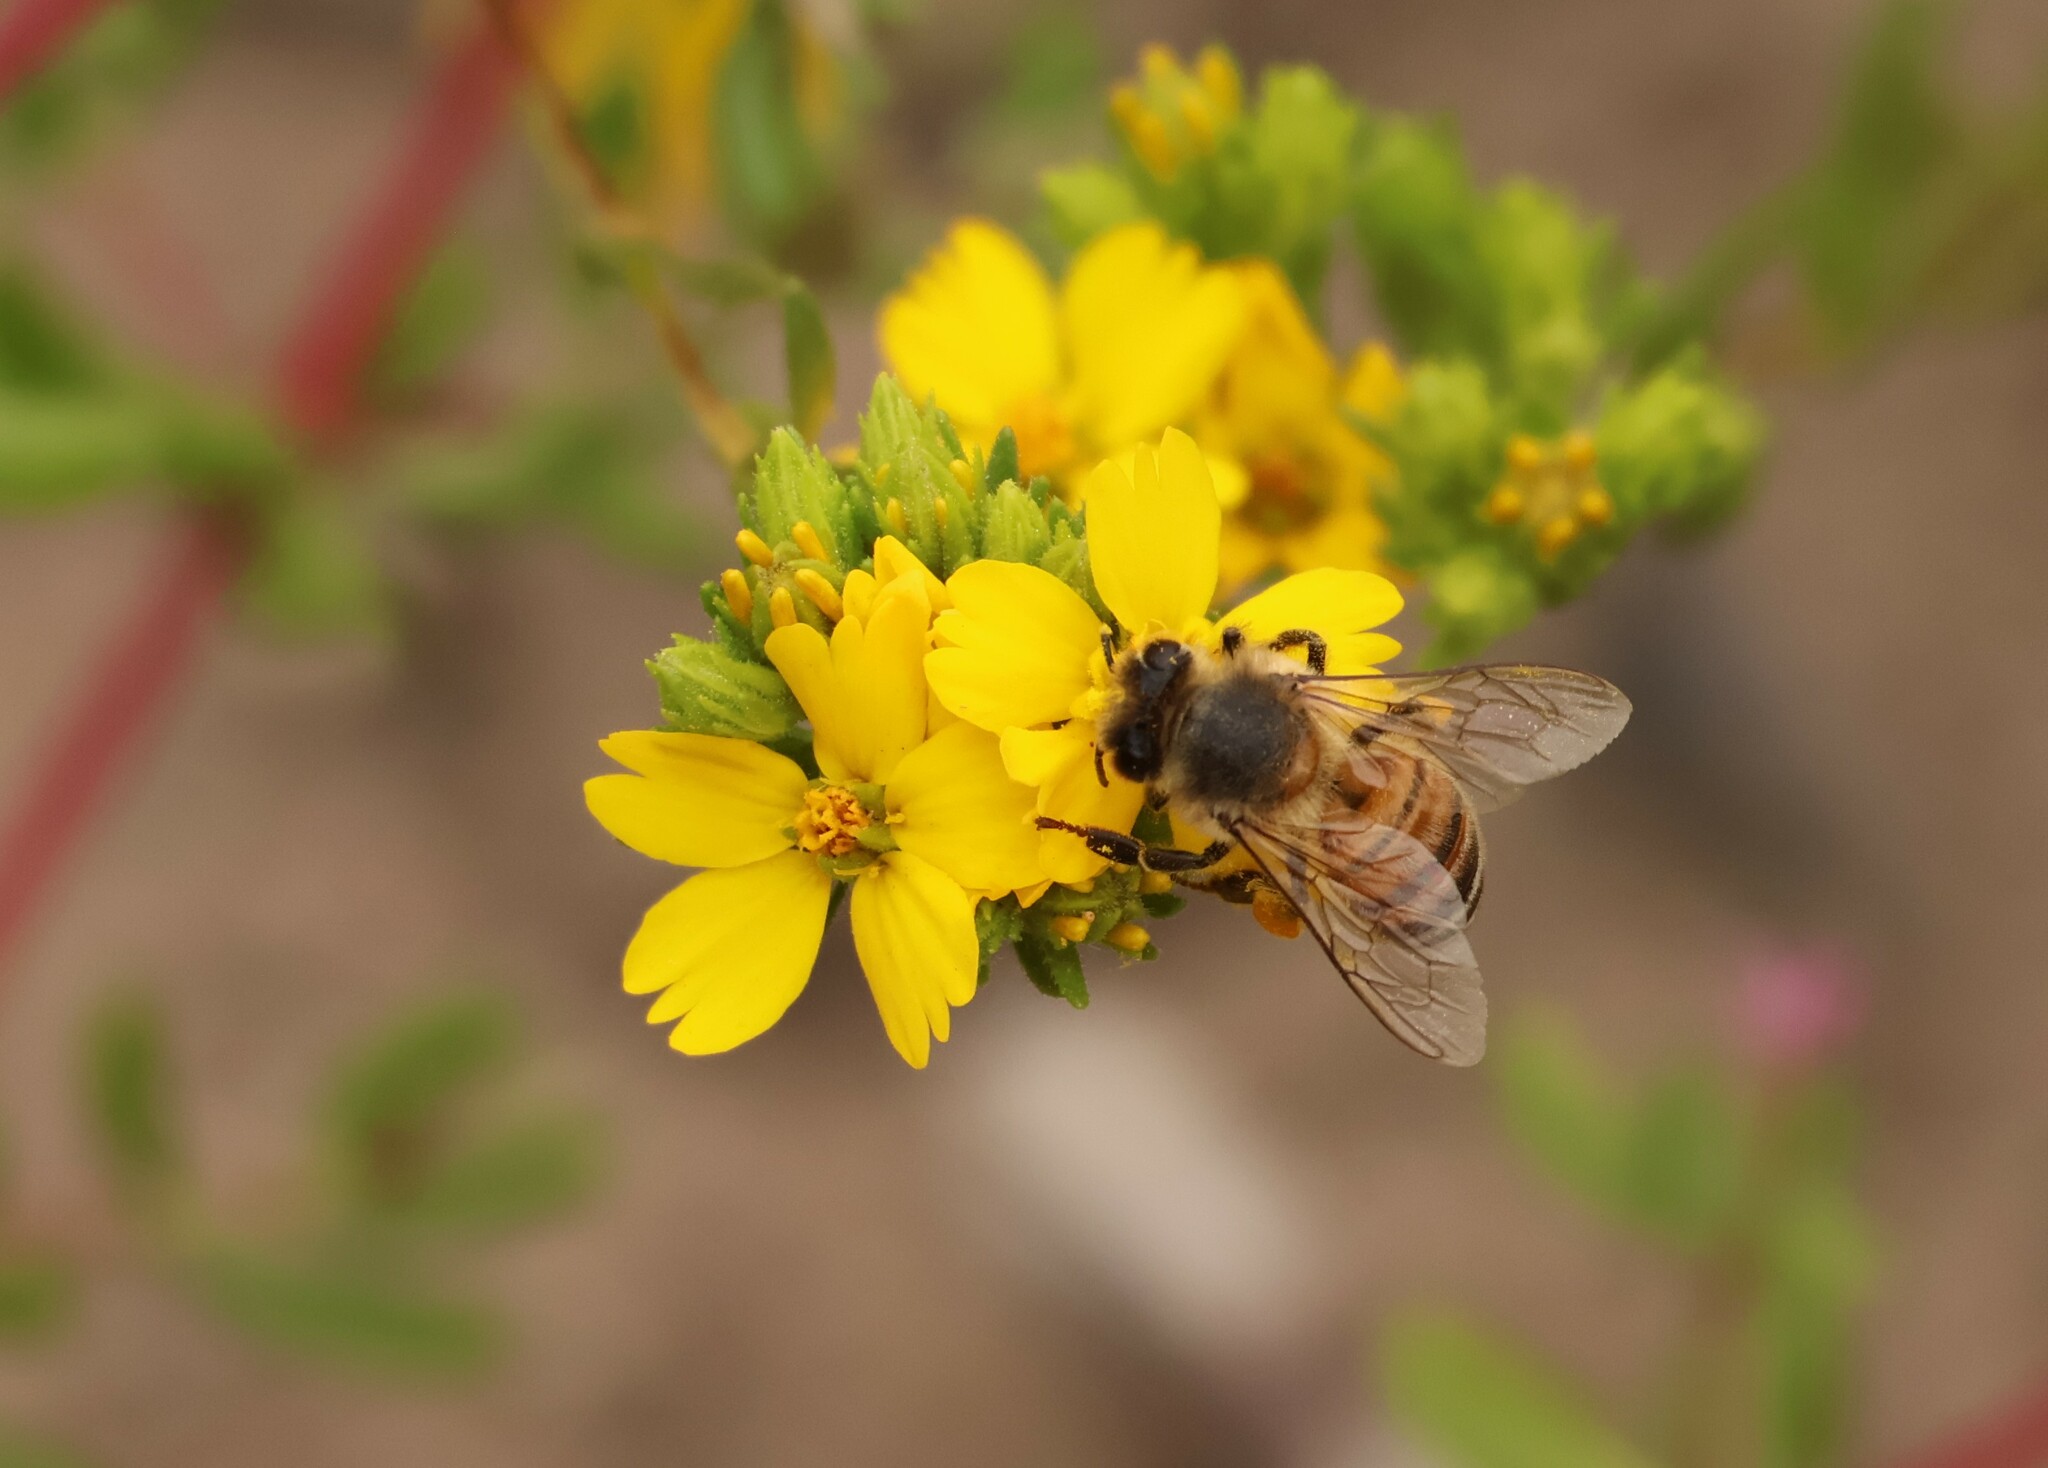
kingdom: Animalia
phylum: Arthropoda
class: Insecta
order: Hymenoptera
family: Apidae
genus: Apis
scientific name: Apis mellifera
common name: Honey bee
